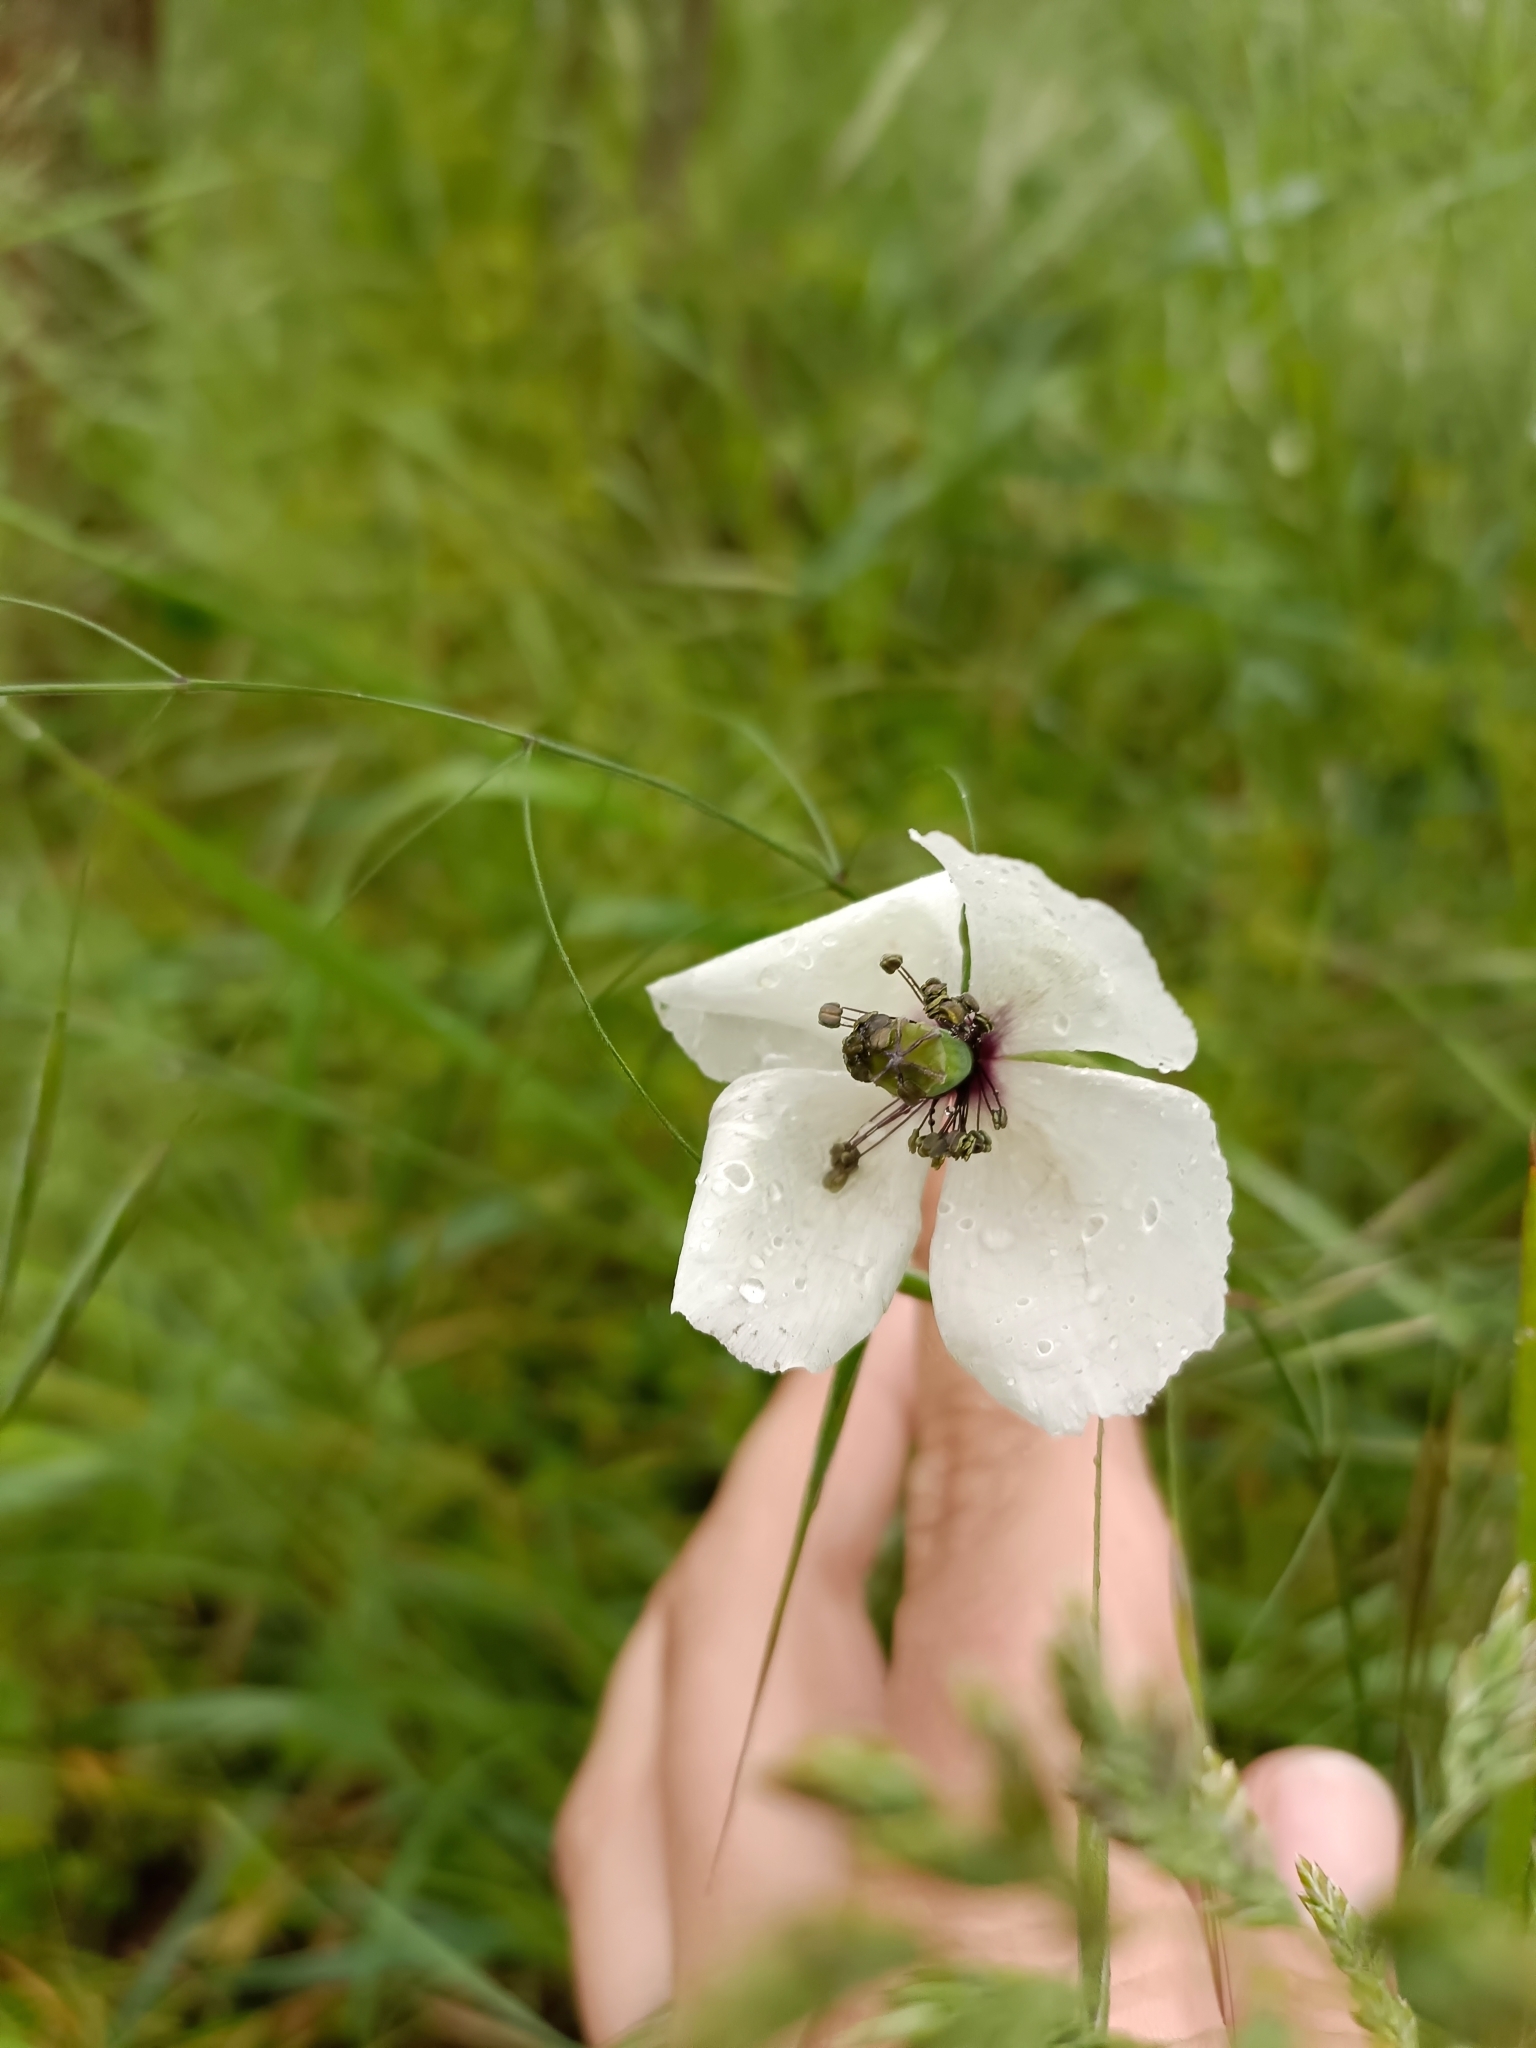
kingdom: Plantae
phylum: Tracheophyta
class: Magnoliopsida
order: Ranunculales
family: Papaveraceae
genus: Papaver
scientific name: Papaver dubium
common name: Long-headed poppy
